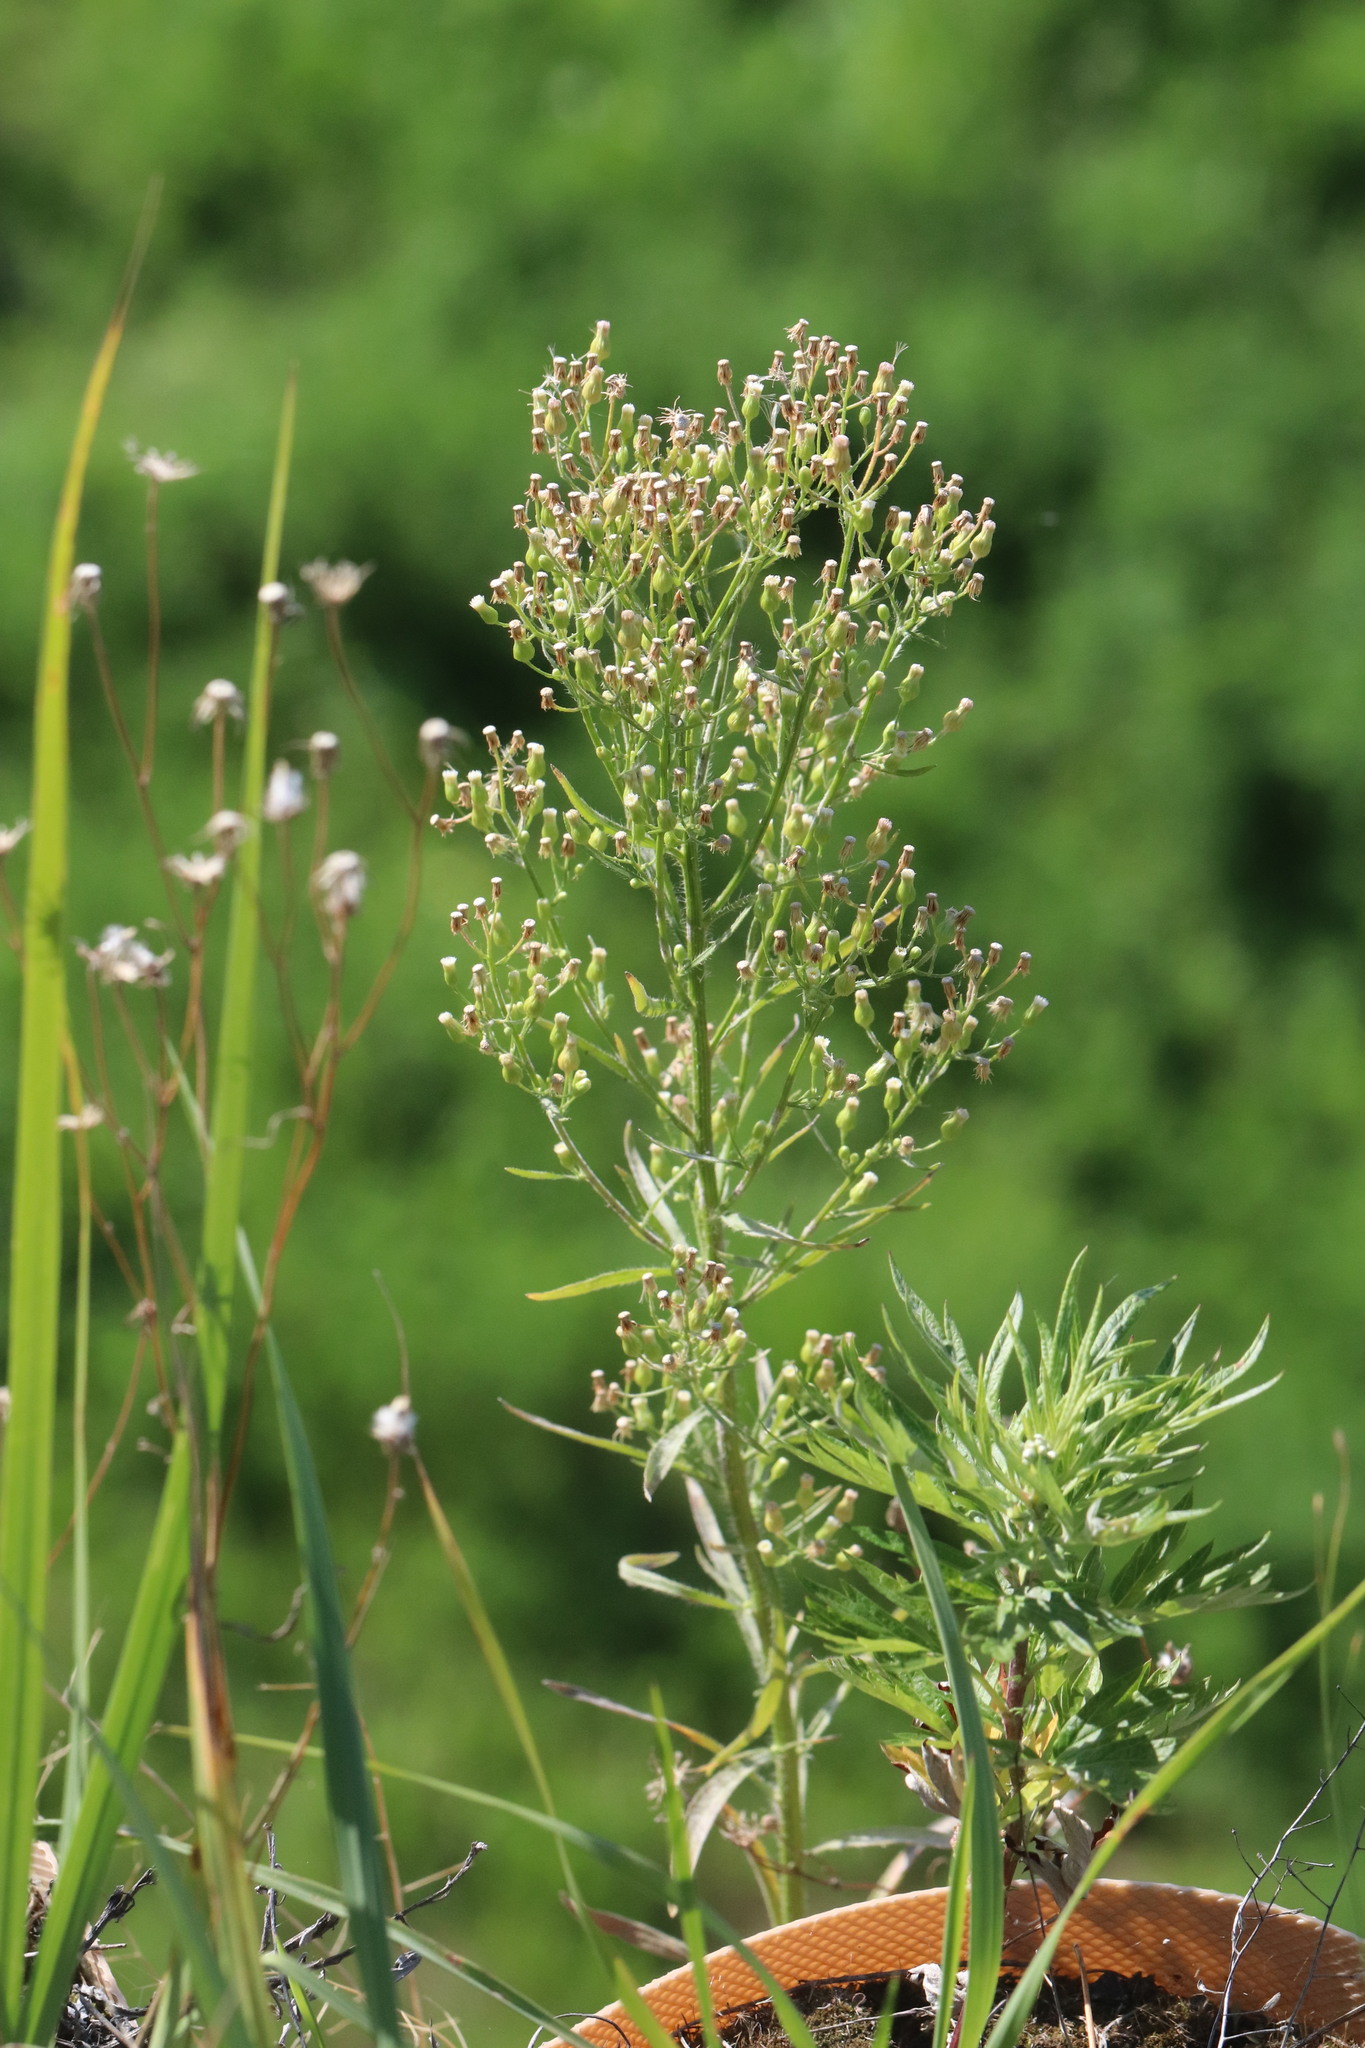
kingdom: Plantae
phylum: Tracheophyta
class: Magnoliopsida
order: Asterales
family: Asteraceae
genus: Erigeron
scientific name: Erigeron canadensis
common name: Canadian fleabane
